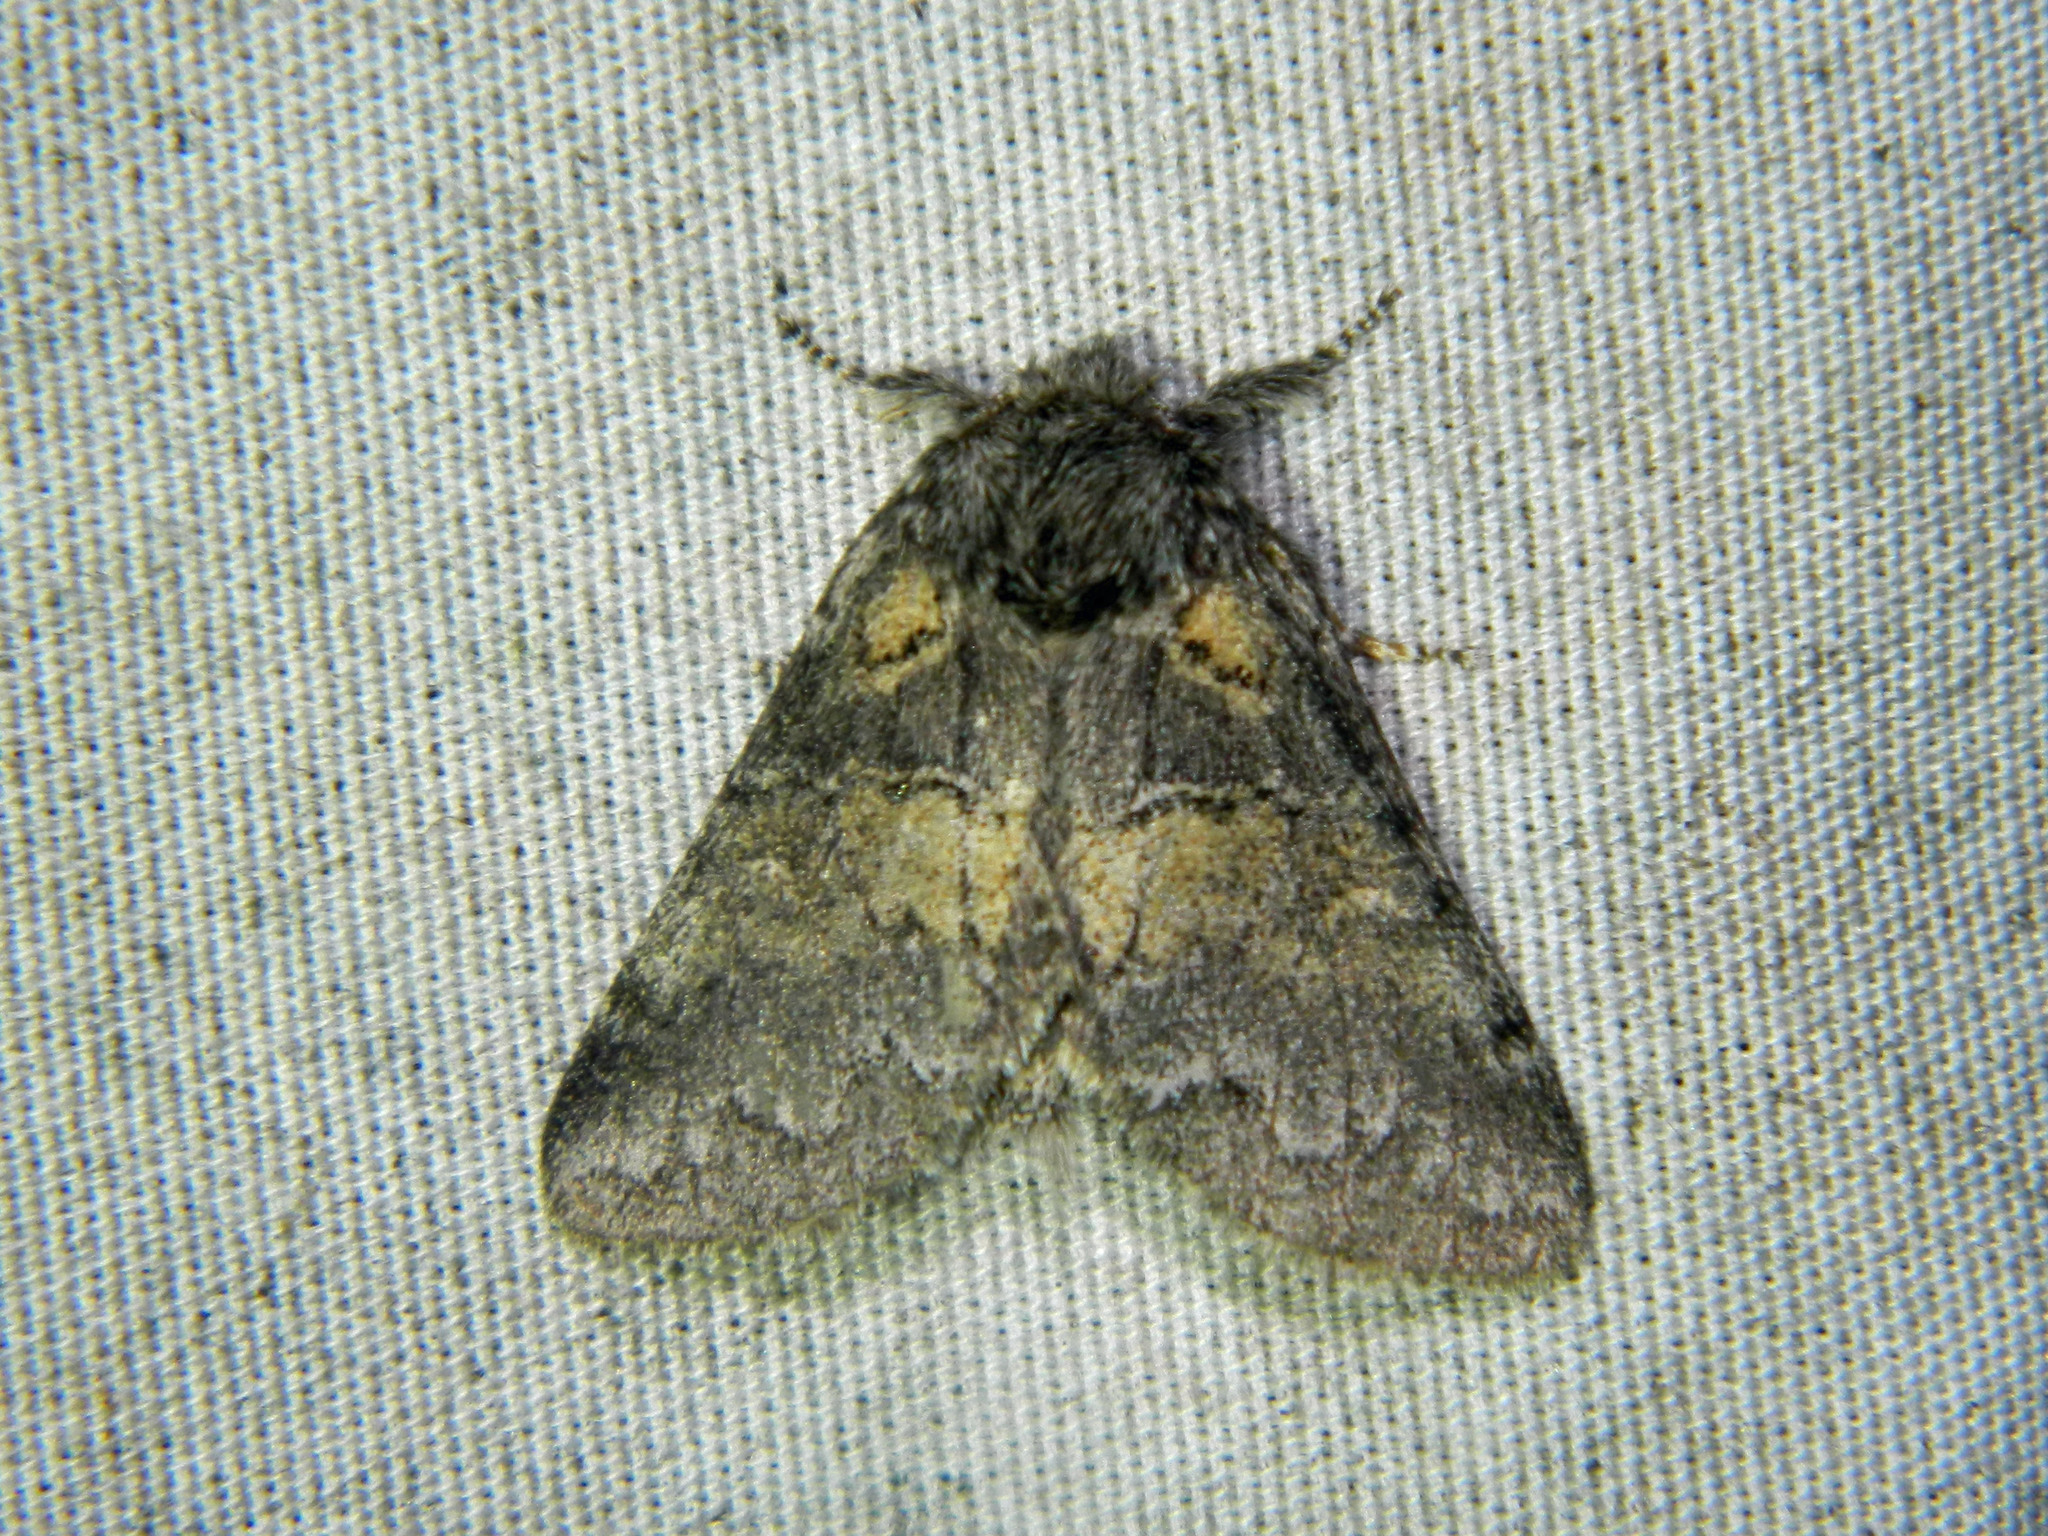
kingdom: Animalia
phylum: Arthropoda
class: Insecta
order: Lepidoptera
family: Notodontidae
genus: Gluphisia
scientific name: Gluphisia septentrionis
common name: Common gluphisia
